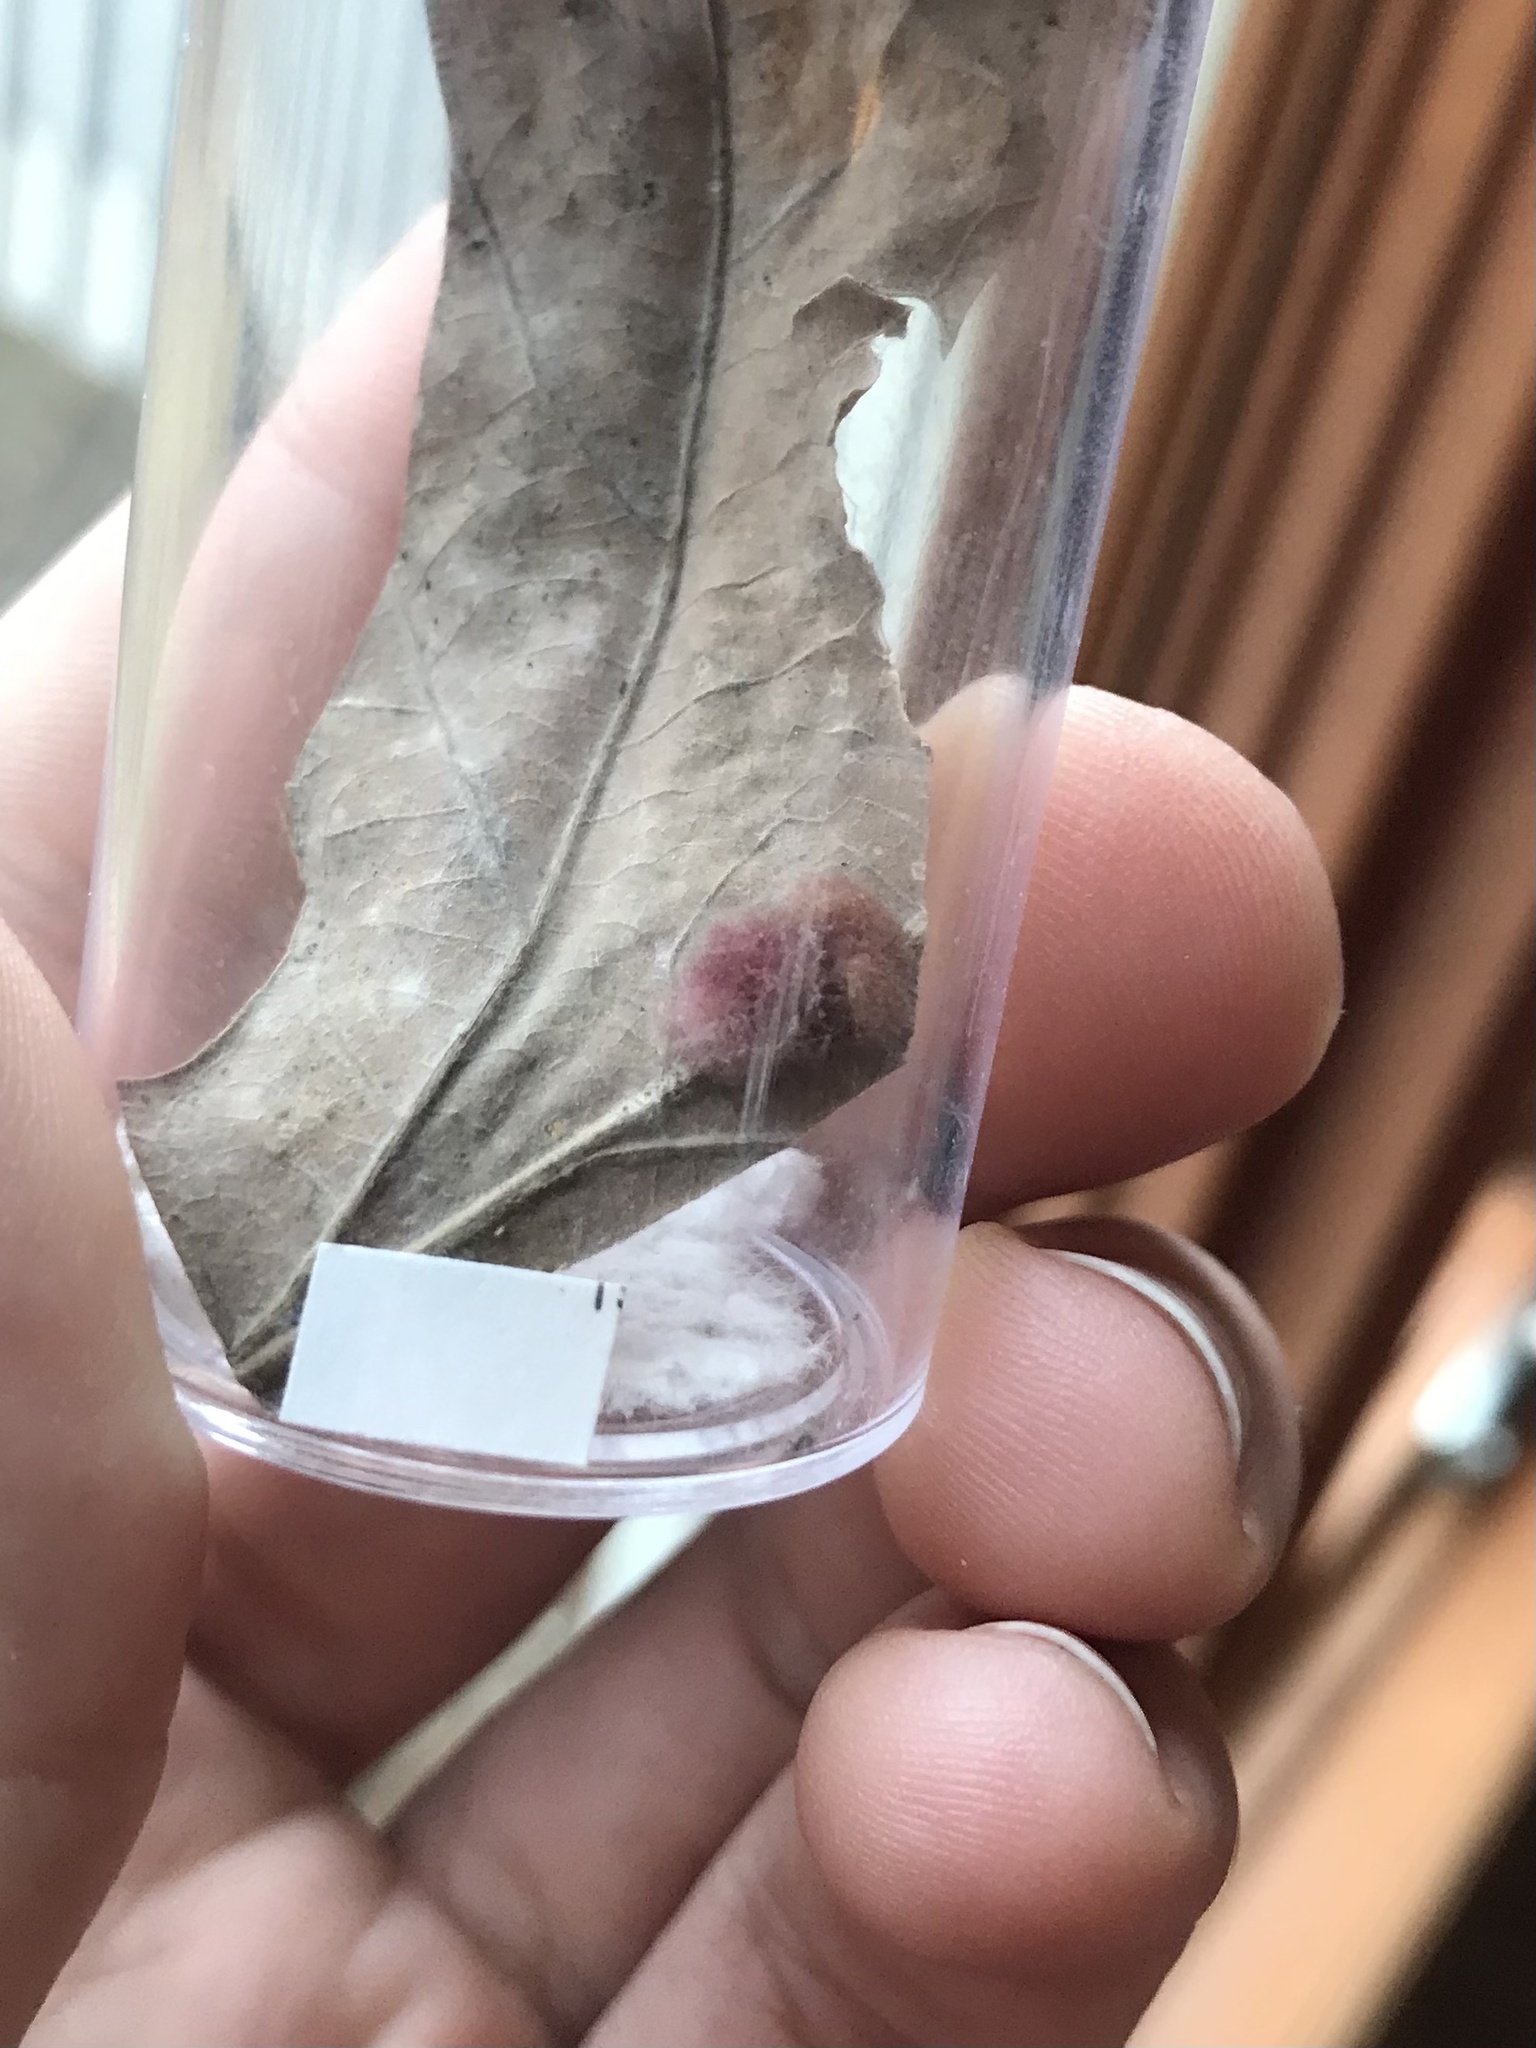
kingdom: Animalia
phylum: Arthropoda
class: Insecta
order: Hymenoptera
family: Cynipidae
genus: Andricus
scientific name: Andricus Druon ignotum
